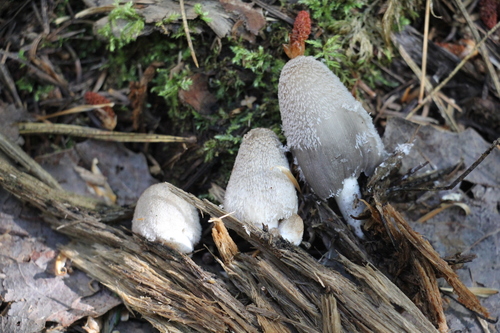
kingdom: Fungi
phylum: Basidiomycota
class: Agaricomycetes
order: Agaricales
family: Psathyrellaceae
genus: Coprinopsis
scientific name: Coprinopsis jonesii
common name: Bonfire inkcap
